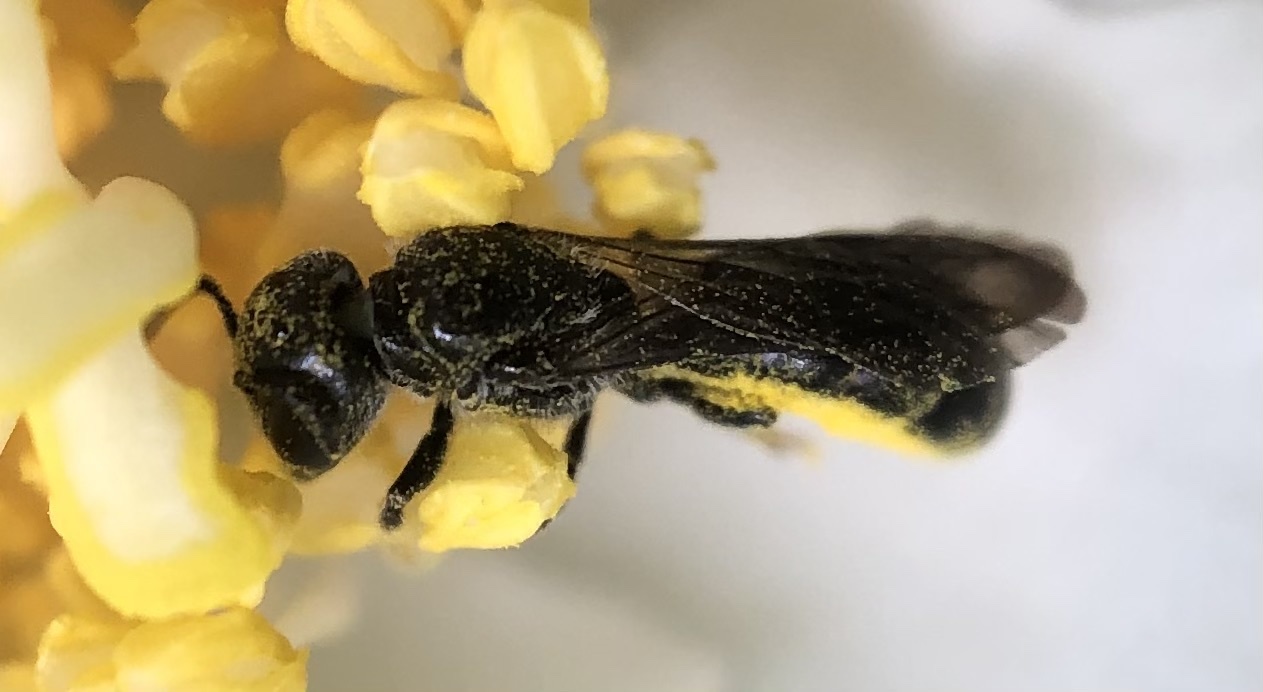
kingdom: Animalia
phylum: Arthropoda
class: Insecta
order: Hymenoptera
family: Megachilidae
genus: Chelostoma
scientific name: Chelostoma philadelphi
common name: Mock-orange scissor bee
